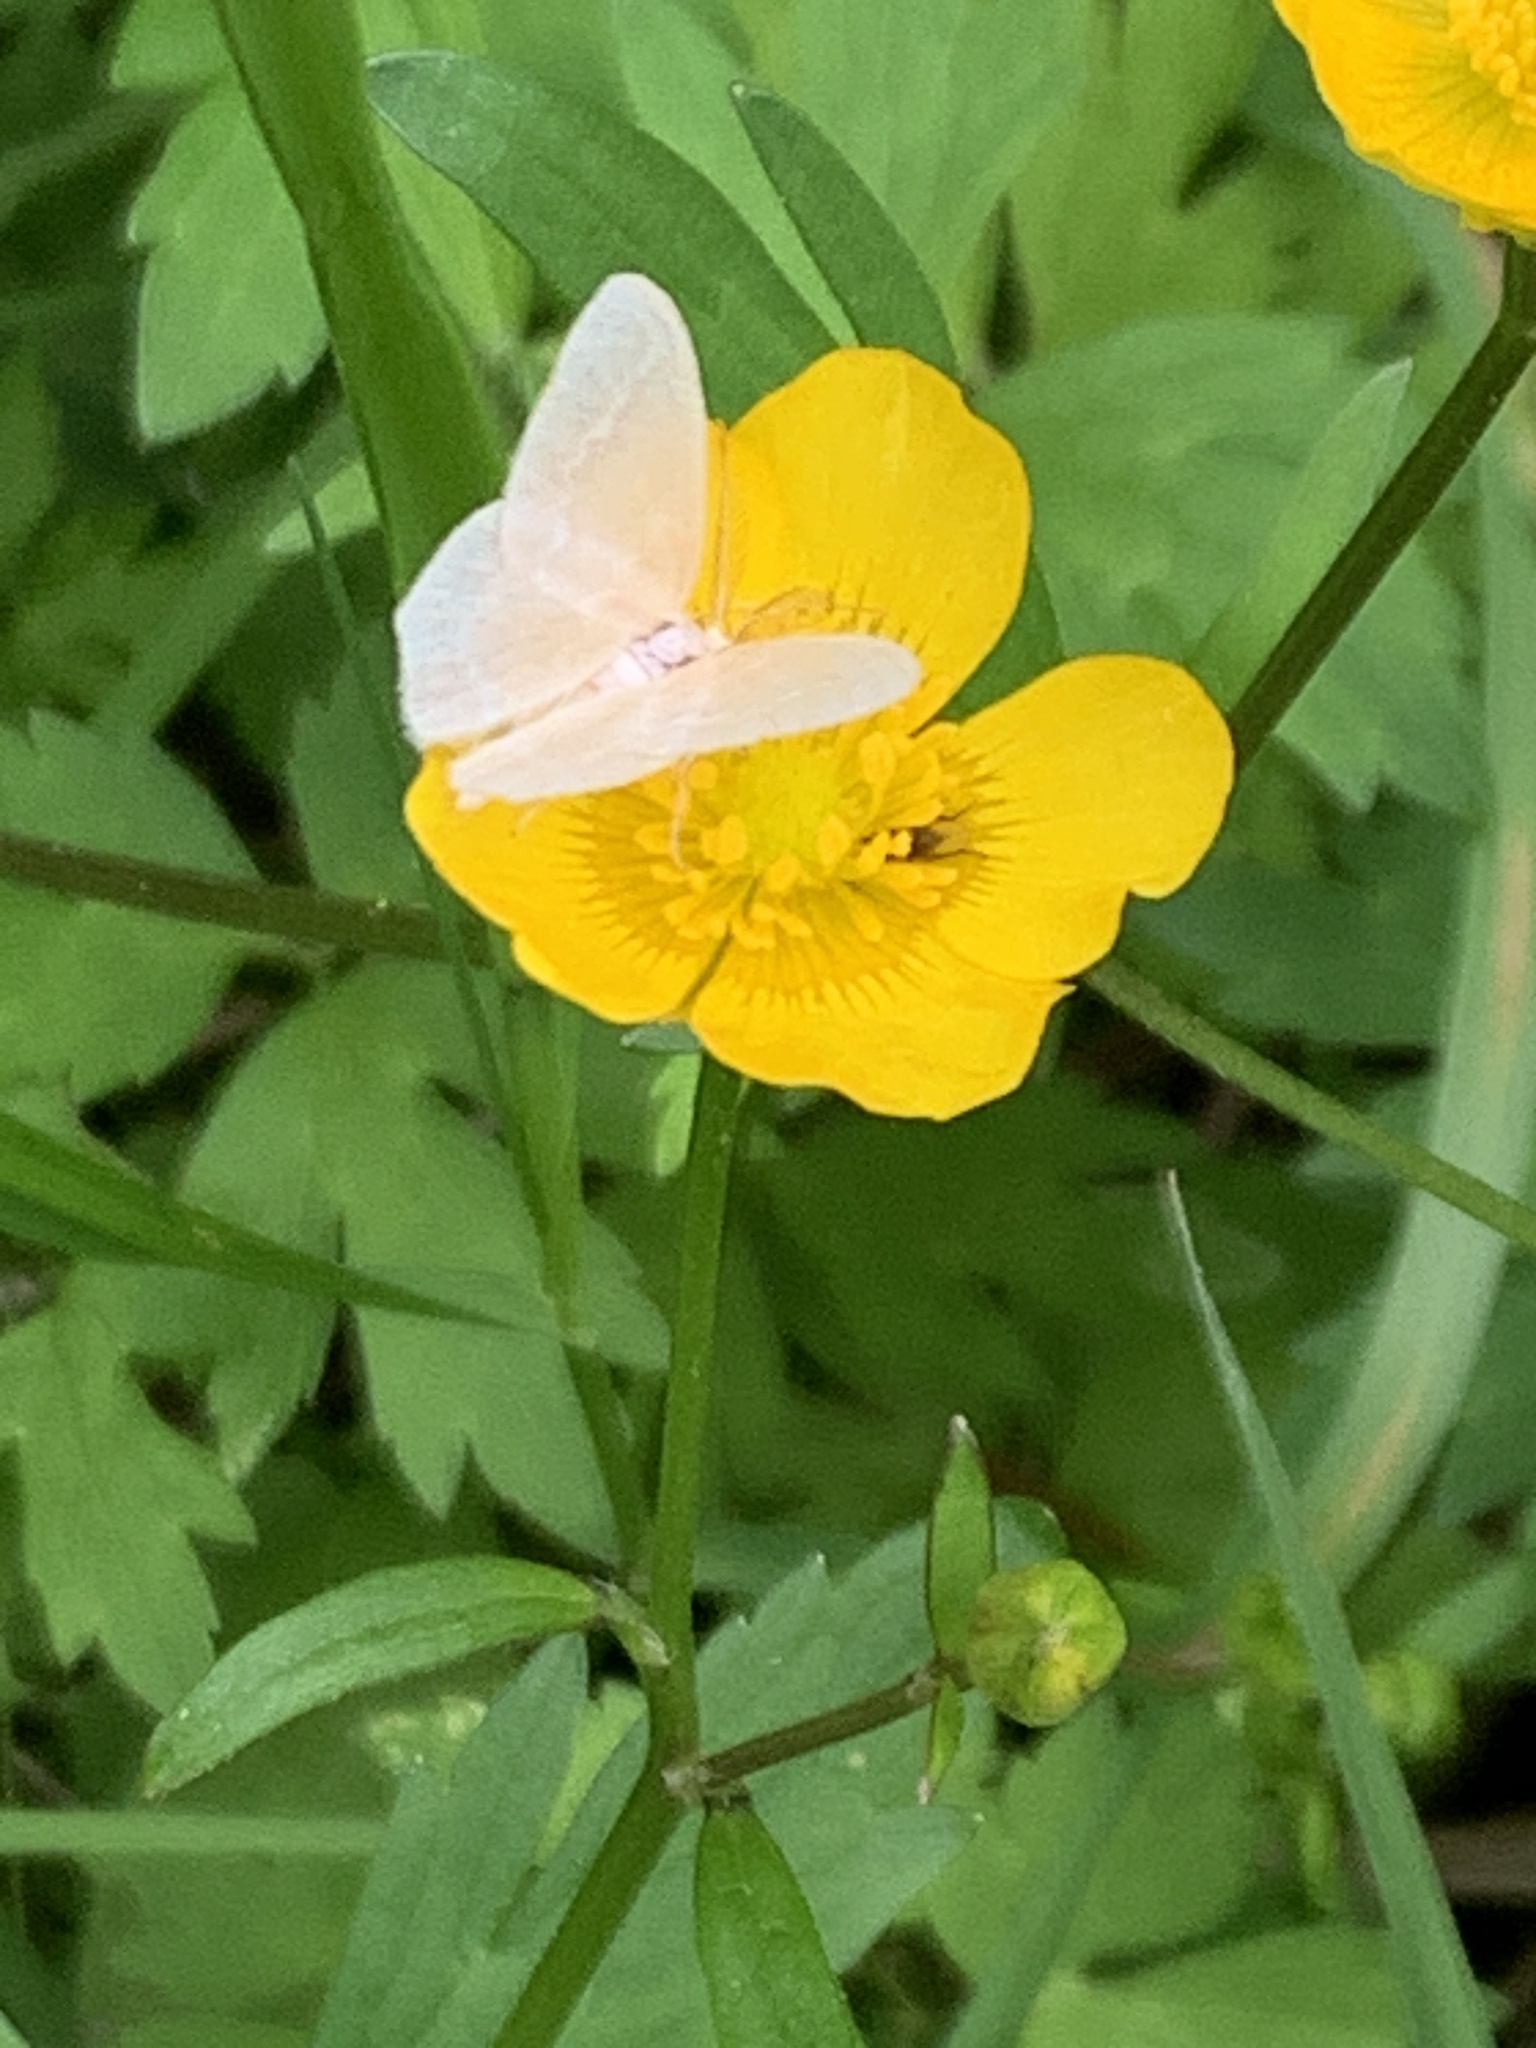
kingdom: Animalia
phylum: Arthropoda
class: Insecta
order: Lepidoptera
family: Geometridae
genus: Jodis
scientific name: Jodis putata
